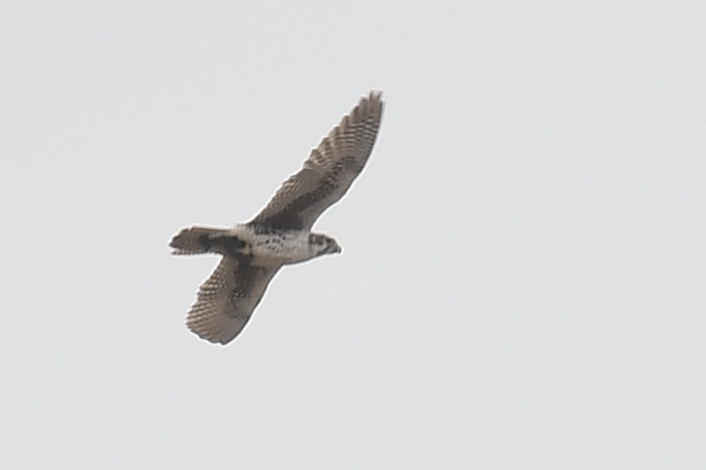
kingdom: Animalia
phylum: Chordata
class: Aves
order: Falconiformes
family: Falconidae
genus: Falco
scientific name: Falco mexicanus
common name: Prairie falcon
